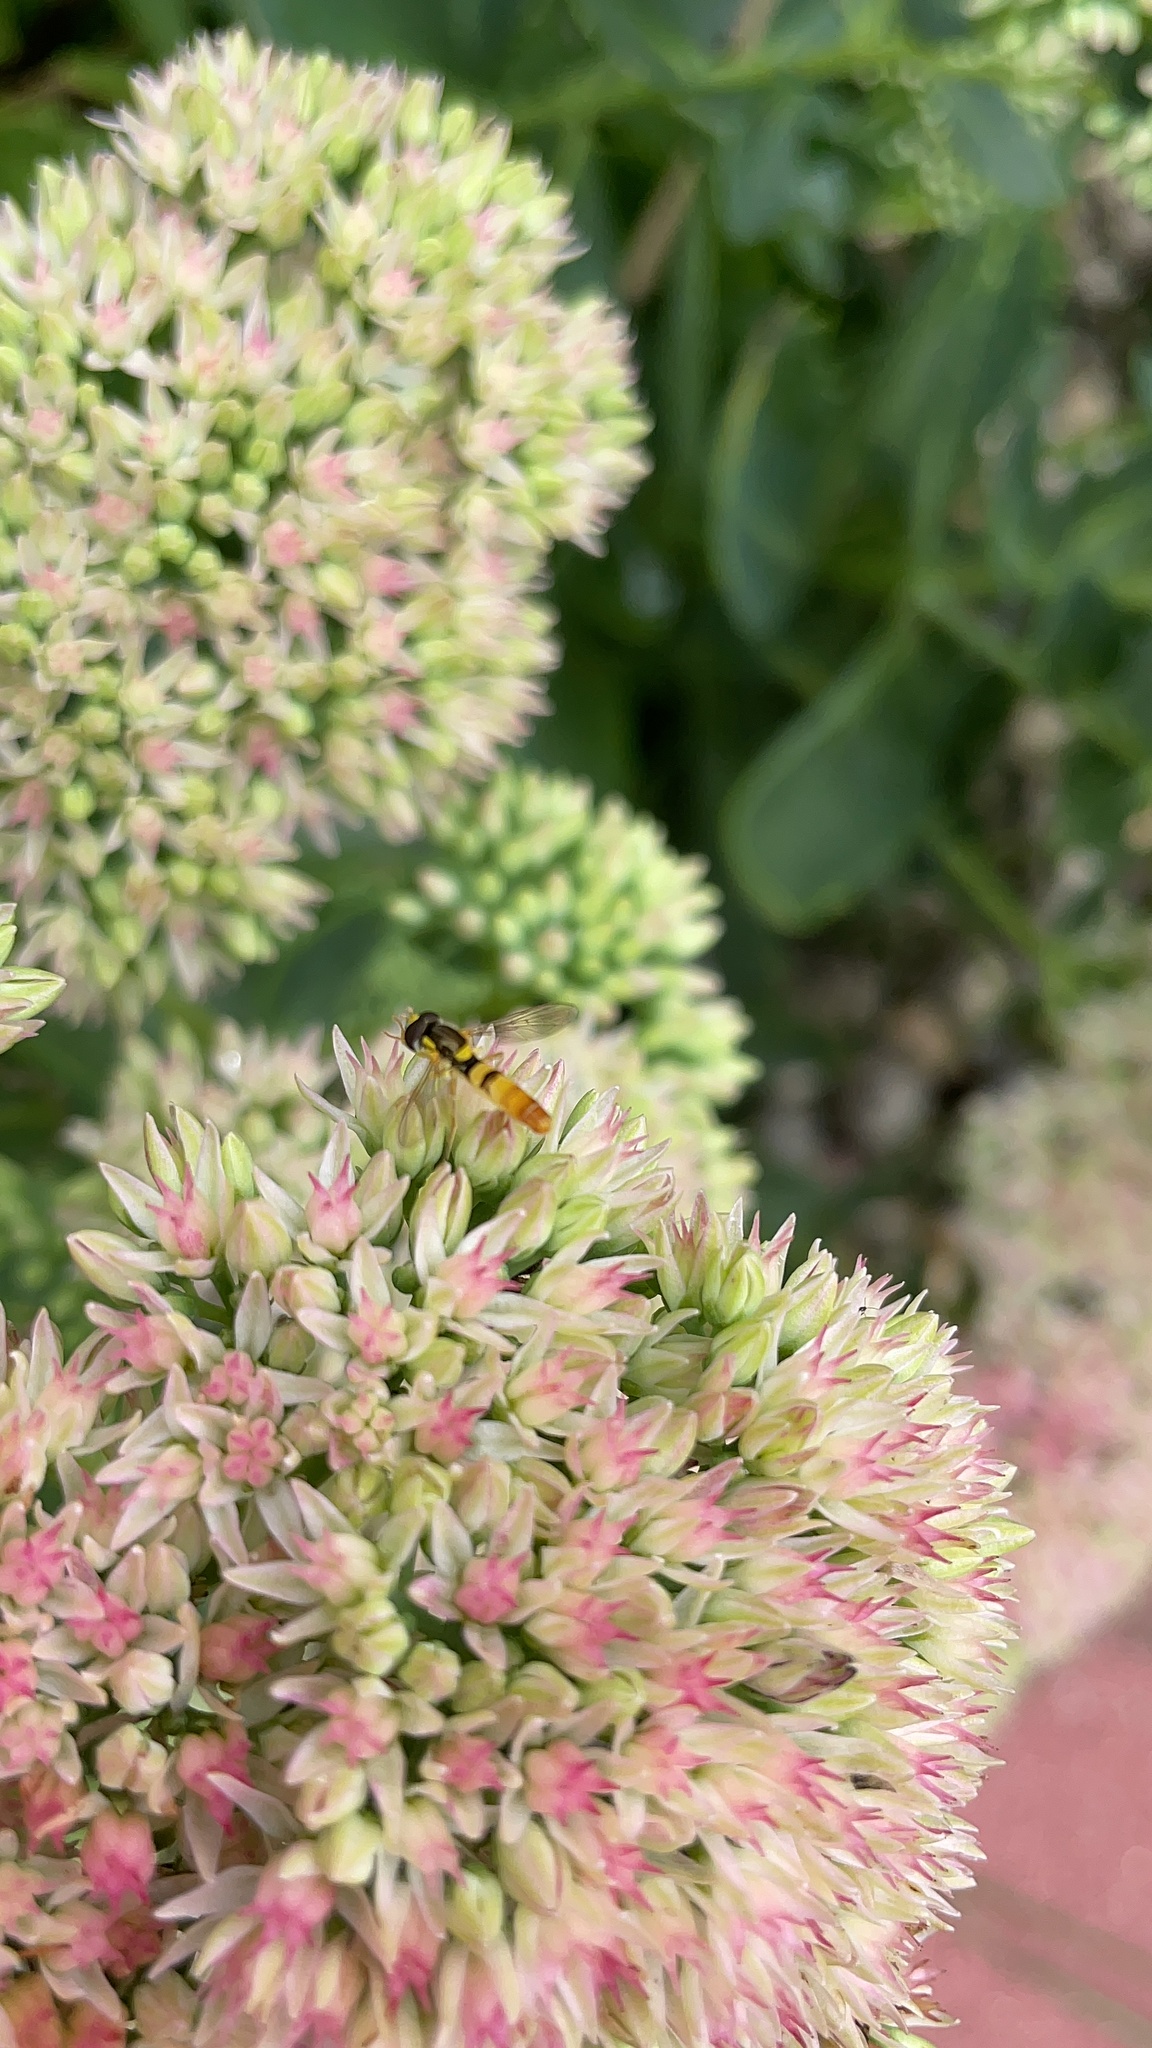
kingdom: Animalia
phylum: Arthropoda
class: Insecta
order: Diptera
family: Syrphidae
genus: Sphaerophoria
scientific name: Sphaerophoria contigua
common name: Tufted globetail
